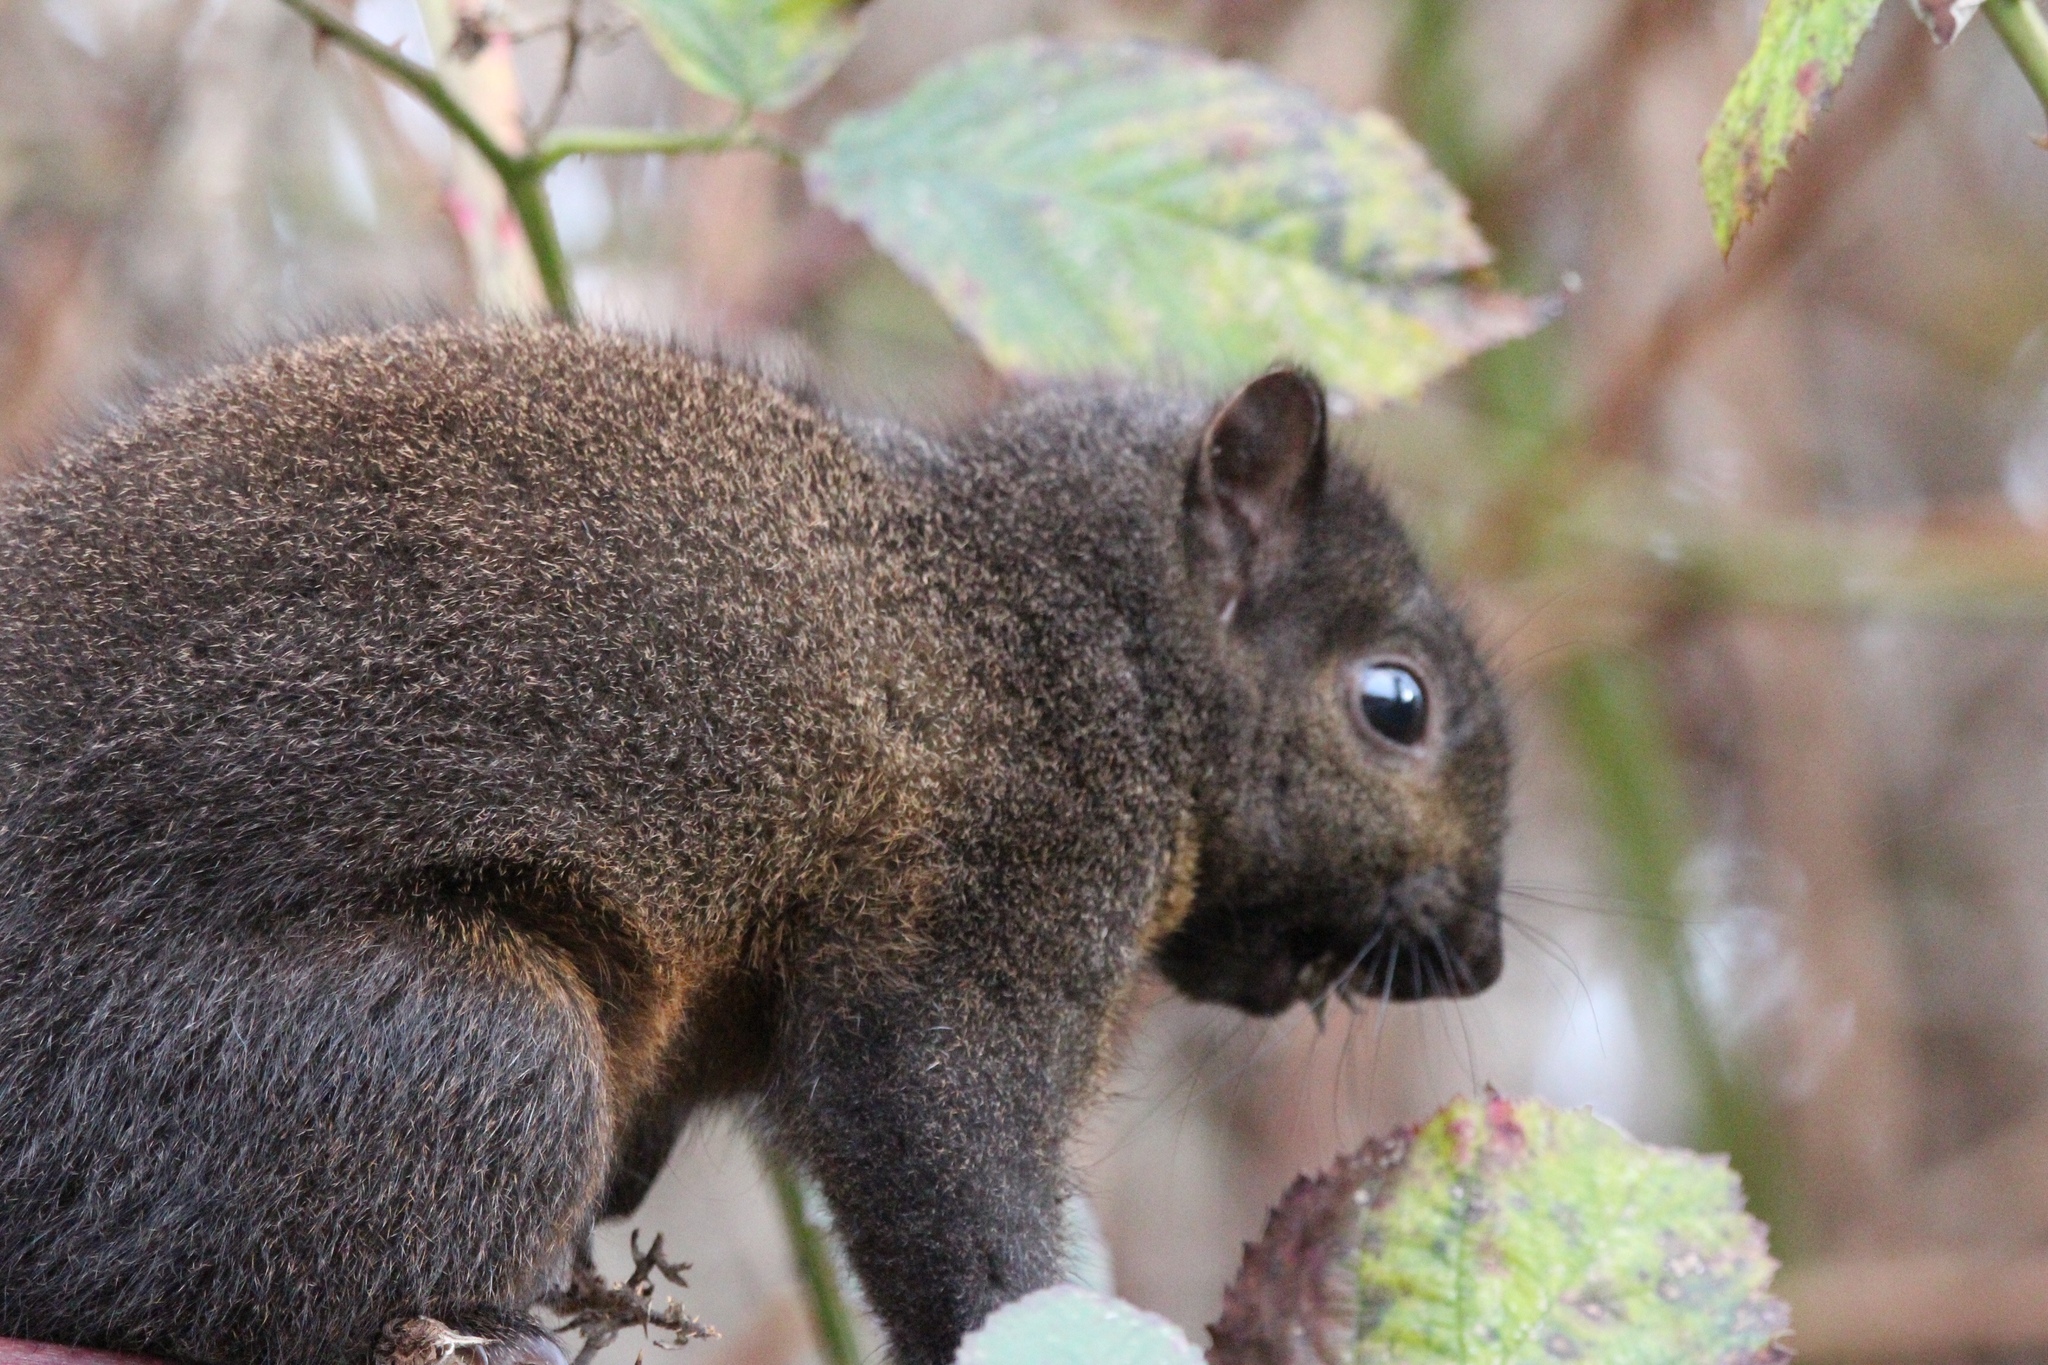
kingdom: Animalia
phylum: Chordata
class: Mammalia
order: Rodentia
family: Sciuridae
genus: Sciurus
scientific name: Sciurus carolinensis
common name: Eastern gray squirrel
